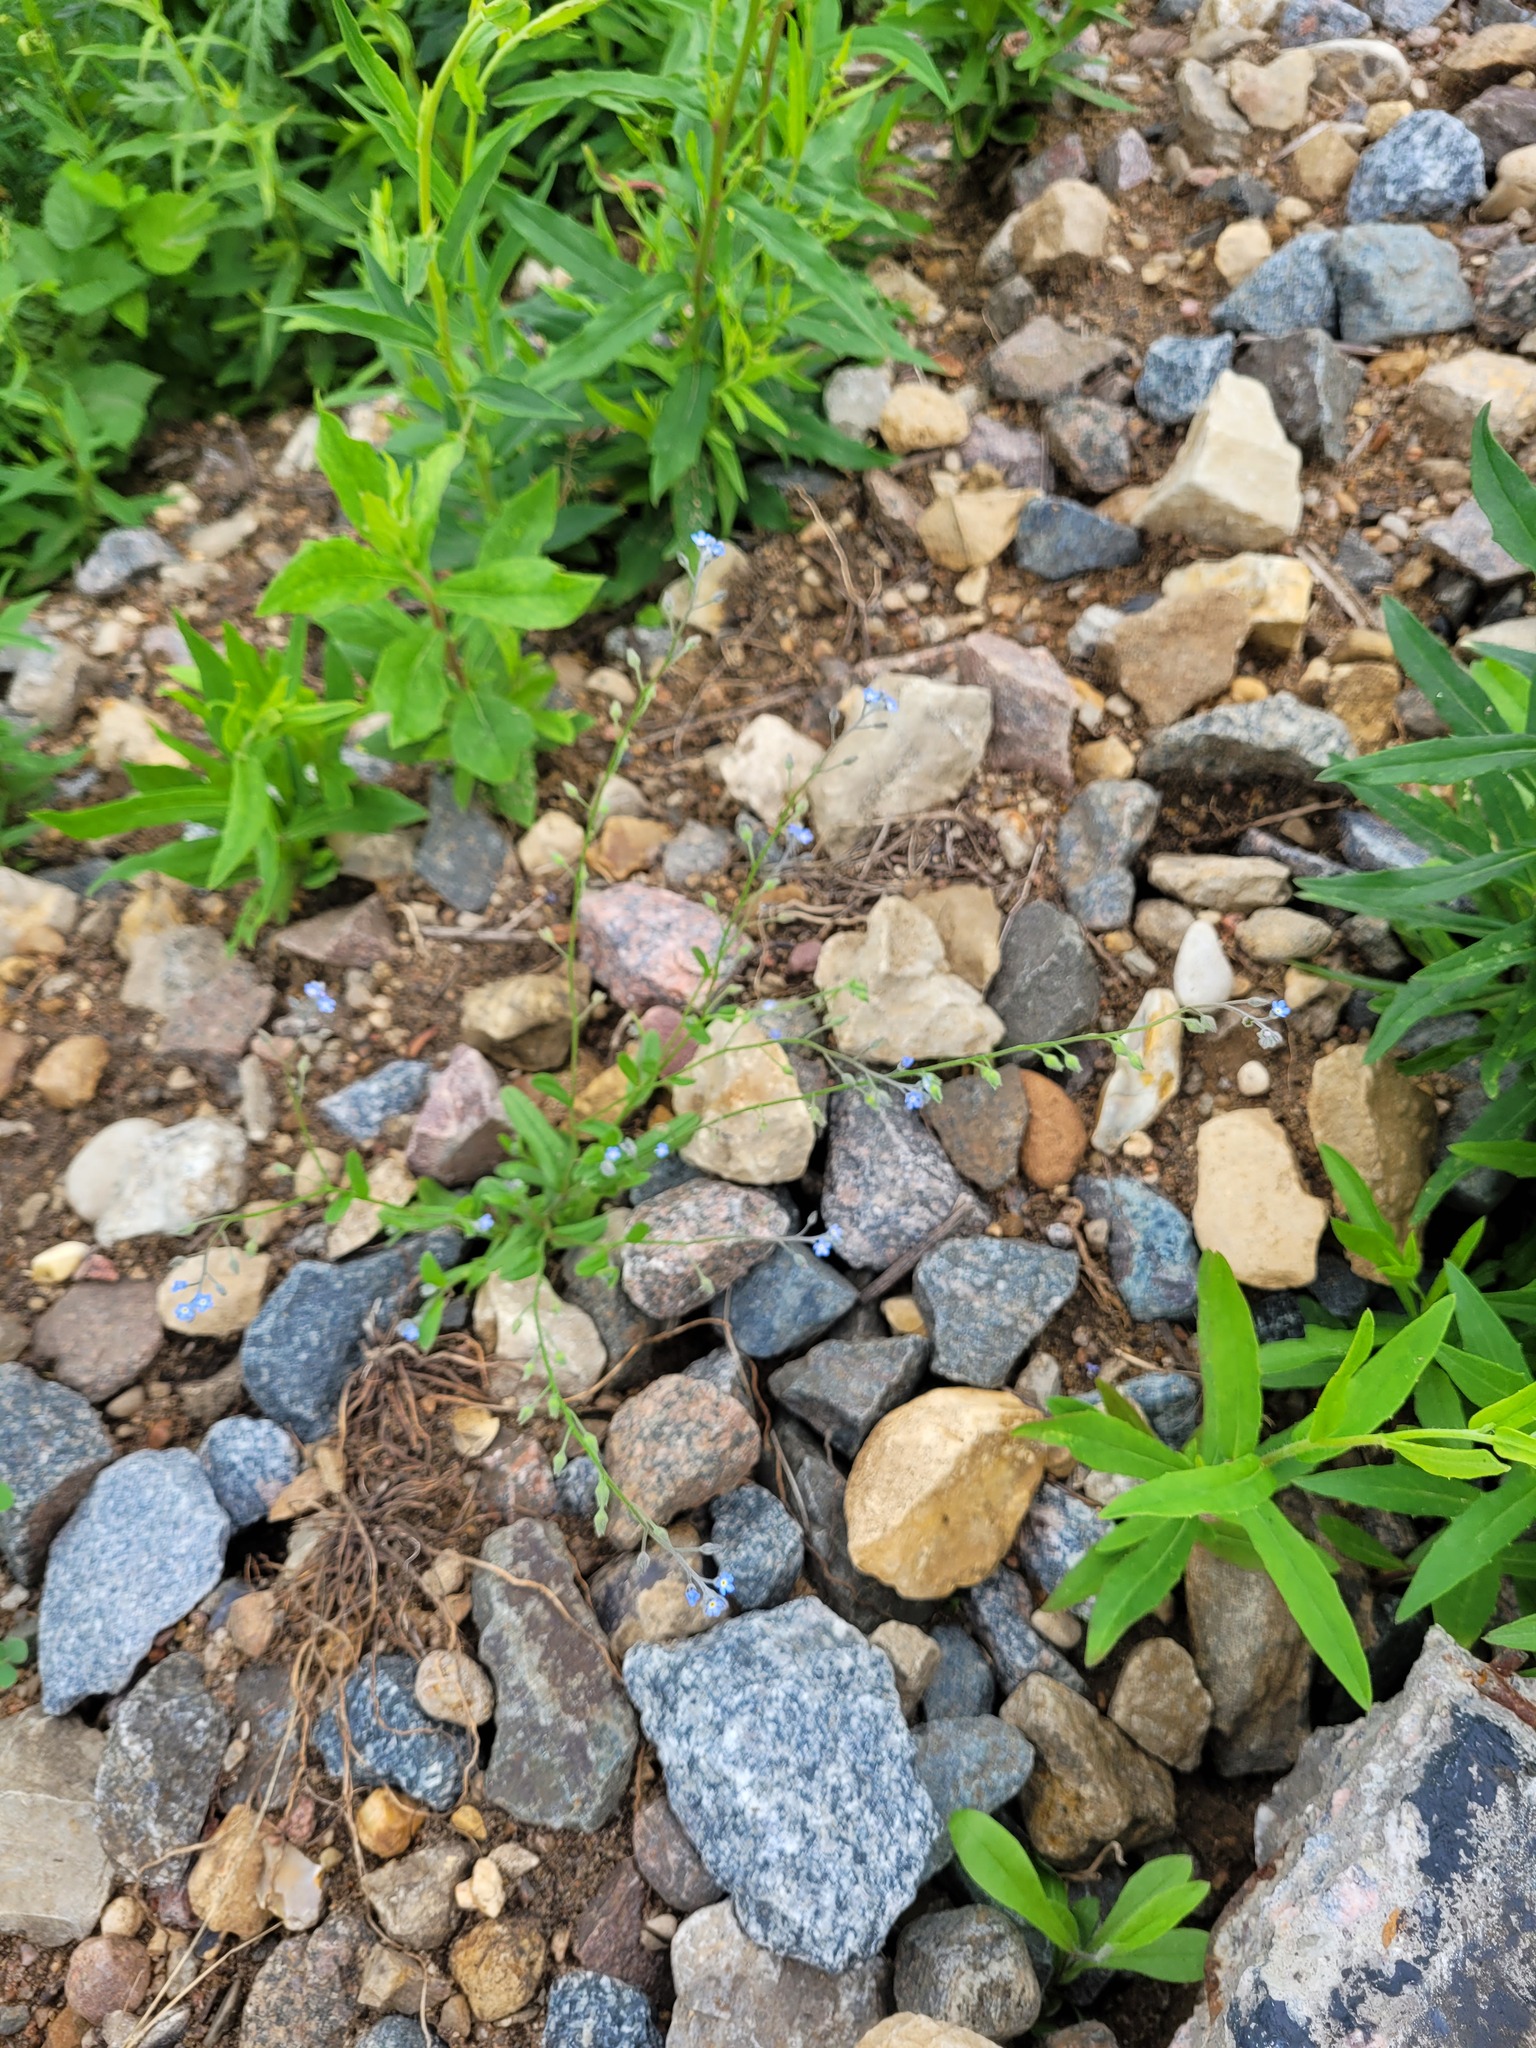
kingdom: Plantae
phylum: Tracheophyta
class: Magnoliopsida
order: Boraginales
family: Boraginaceae
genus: Myosotis
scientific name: Myosotis arvensis
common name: Field forget-me-not
